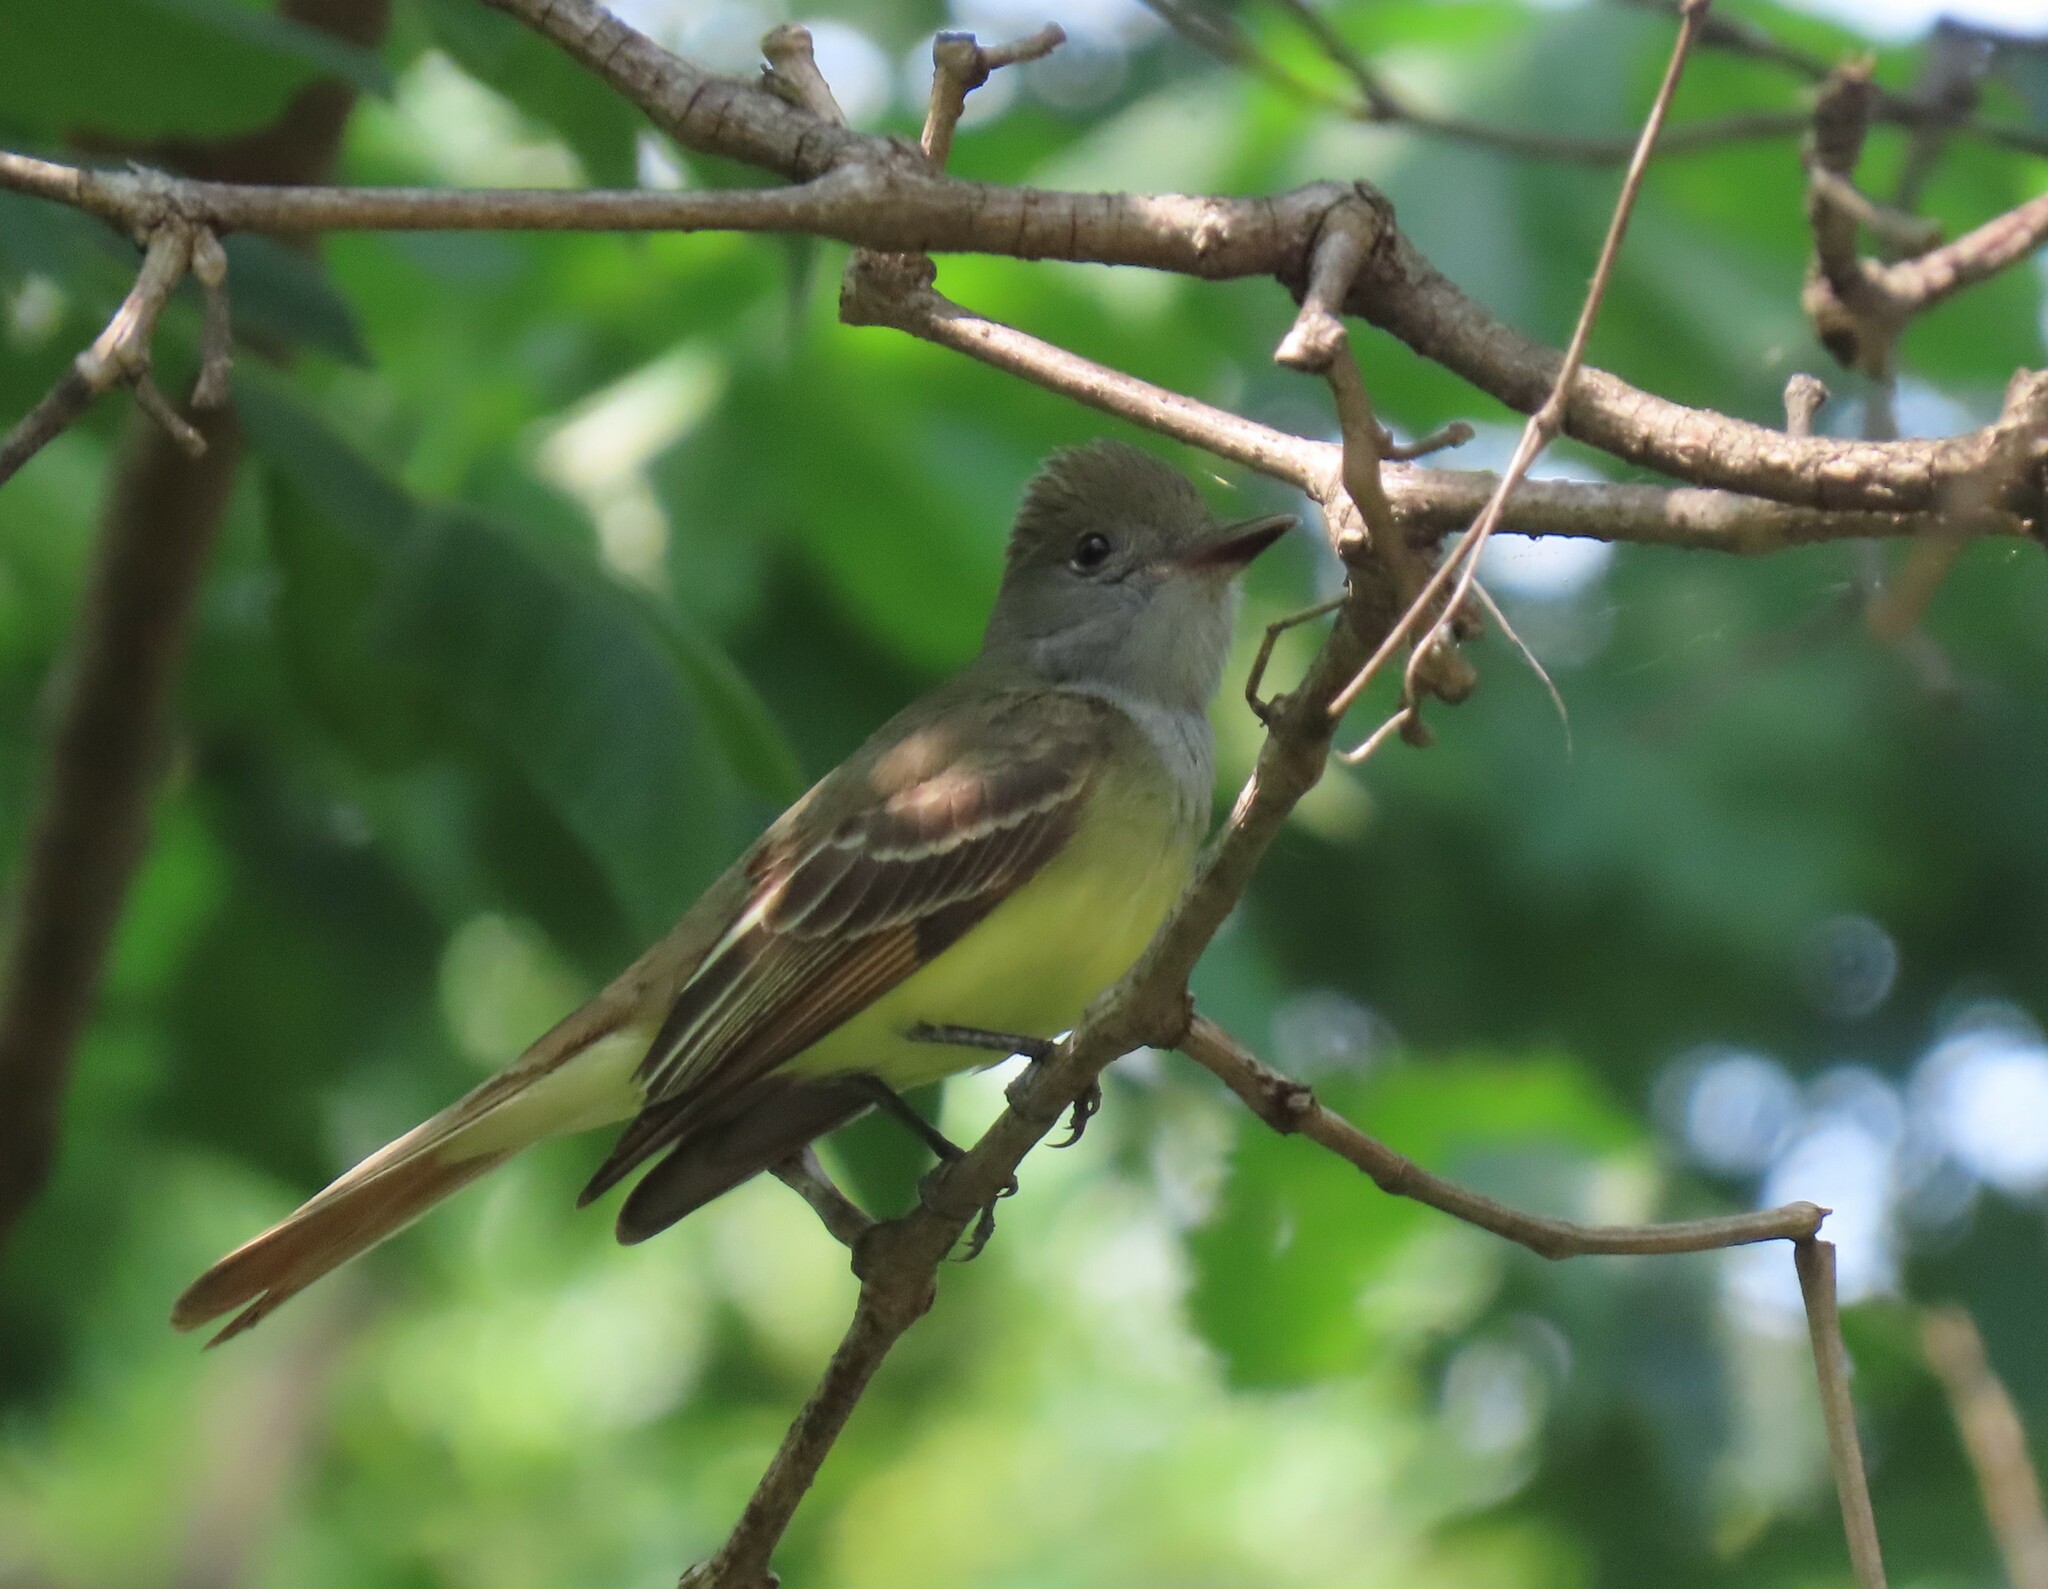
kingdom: Animalia
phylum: Chordata
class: Aves
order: Passeriformes
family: Tyrannidae
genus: Myiarchus
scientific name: Myiarchus crinitus
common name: Great crested flycatcher
